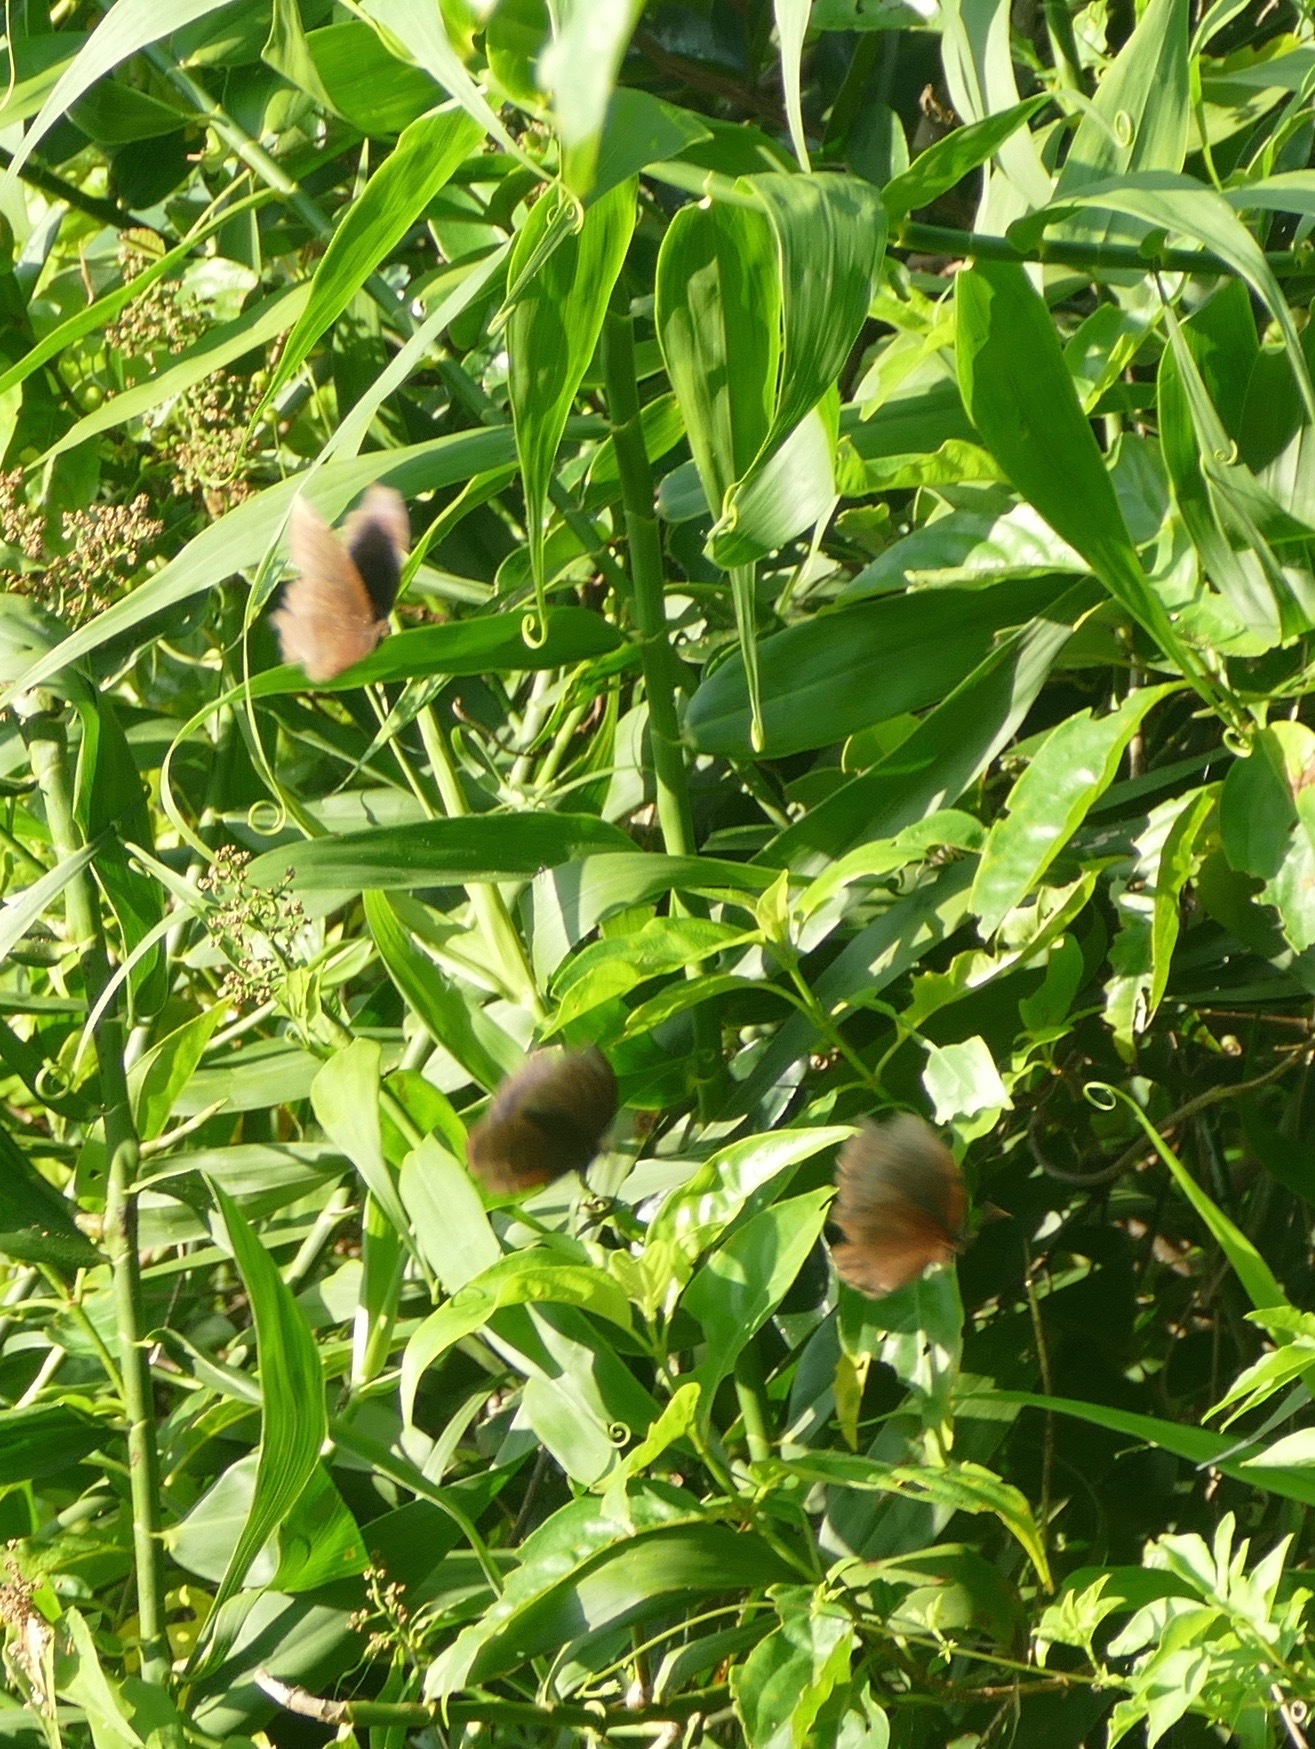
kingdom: Animalia
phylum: Arthropoda
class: Insecta
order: Lepidoptera
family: Nymphalidae
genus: Elymnias
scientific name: Elymnias hypermnestra
